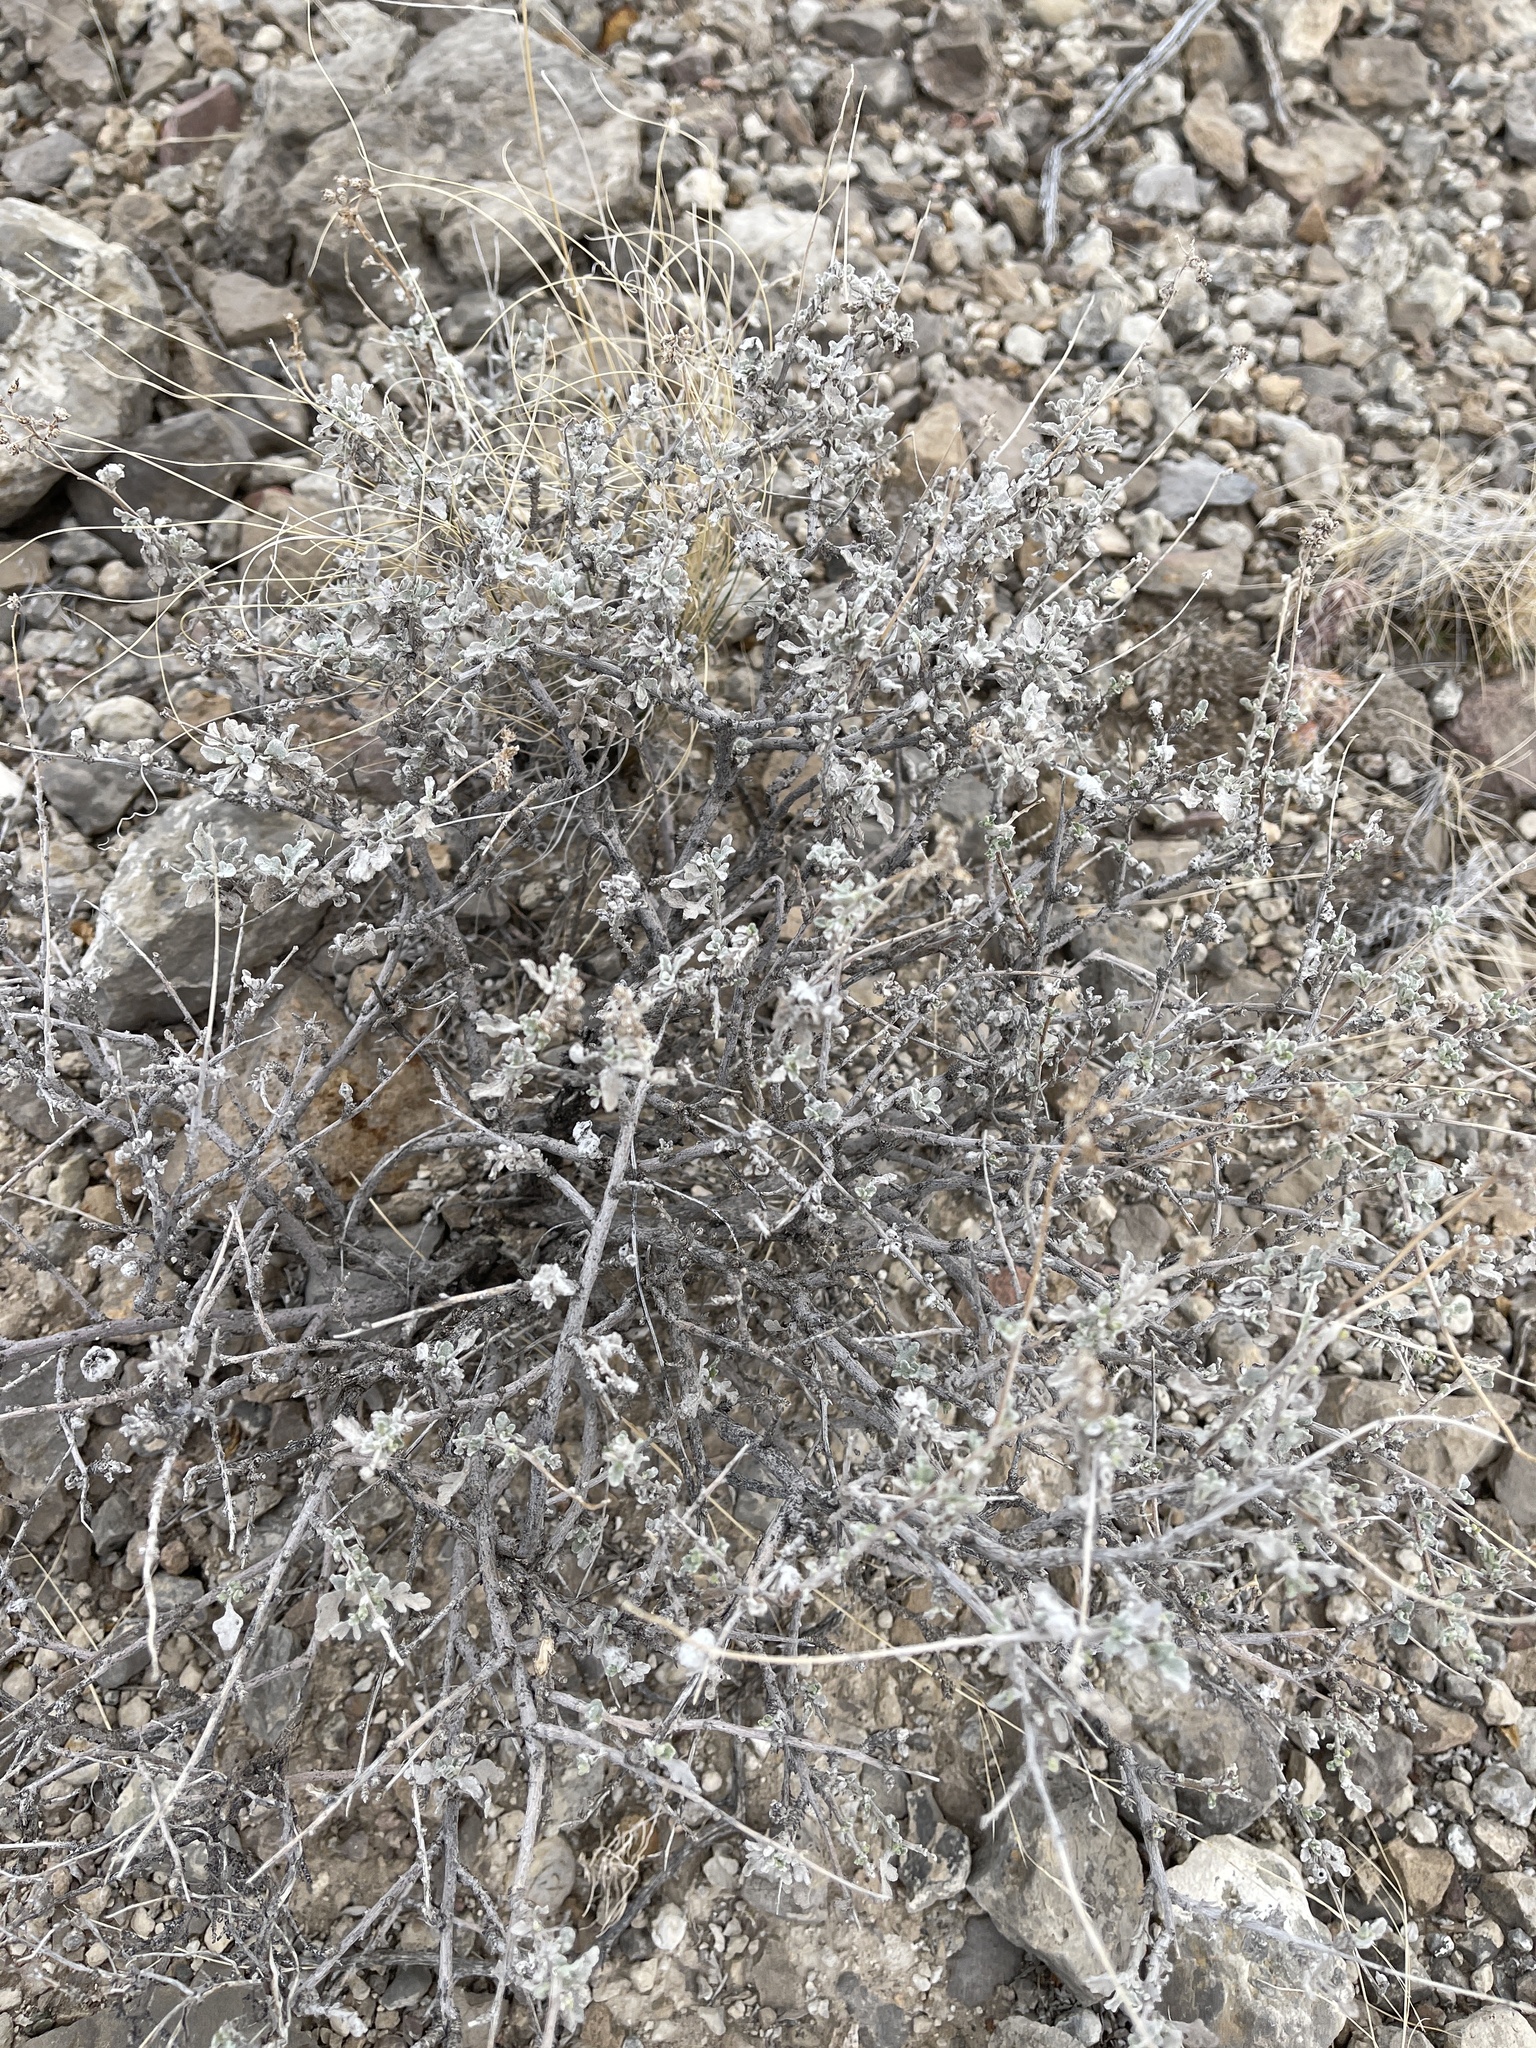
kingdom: Plantae
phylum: Tracheophyta
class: Magnoliopsida
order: Asterales
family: Asteraceae
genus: Parthenium
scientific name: Parthenium incanum
